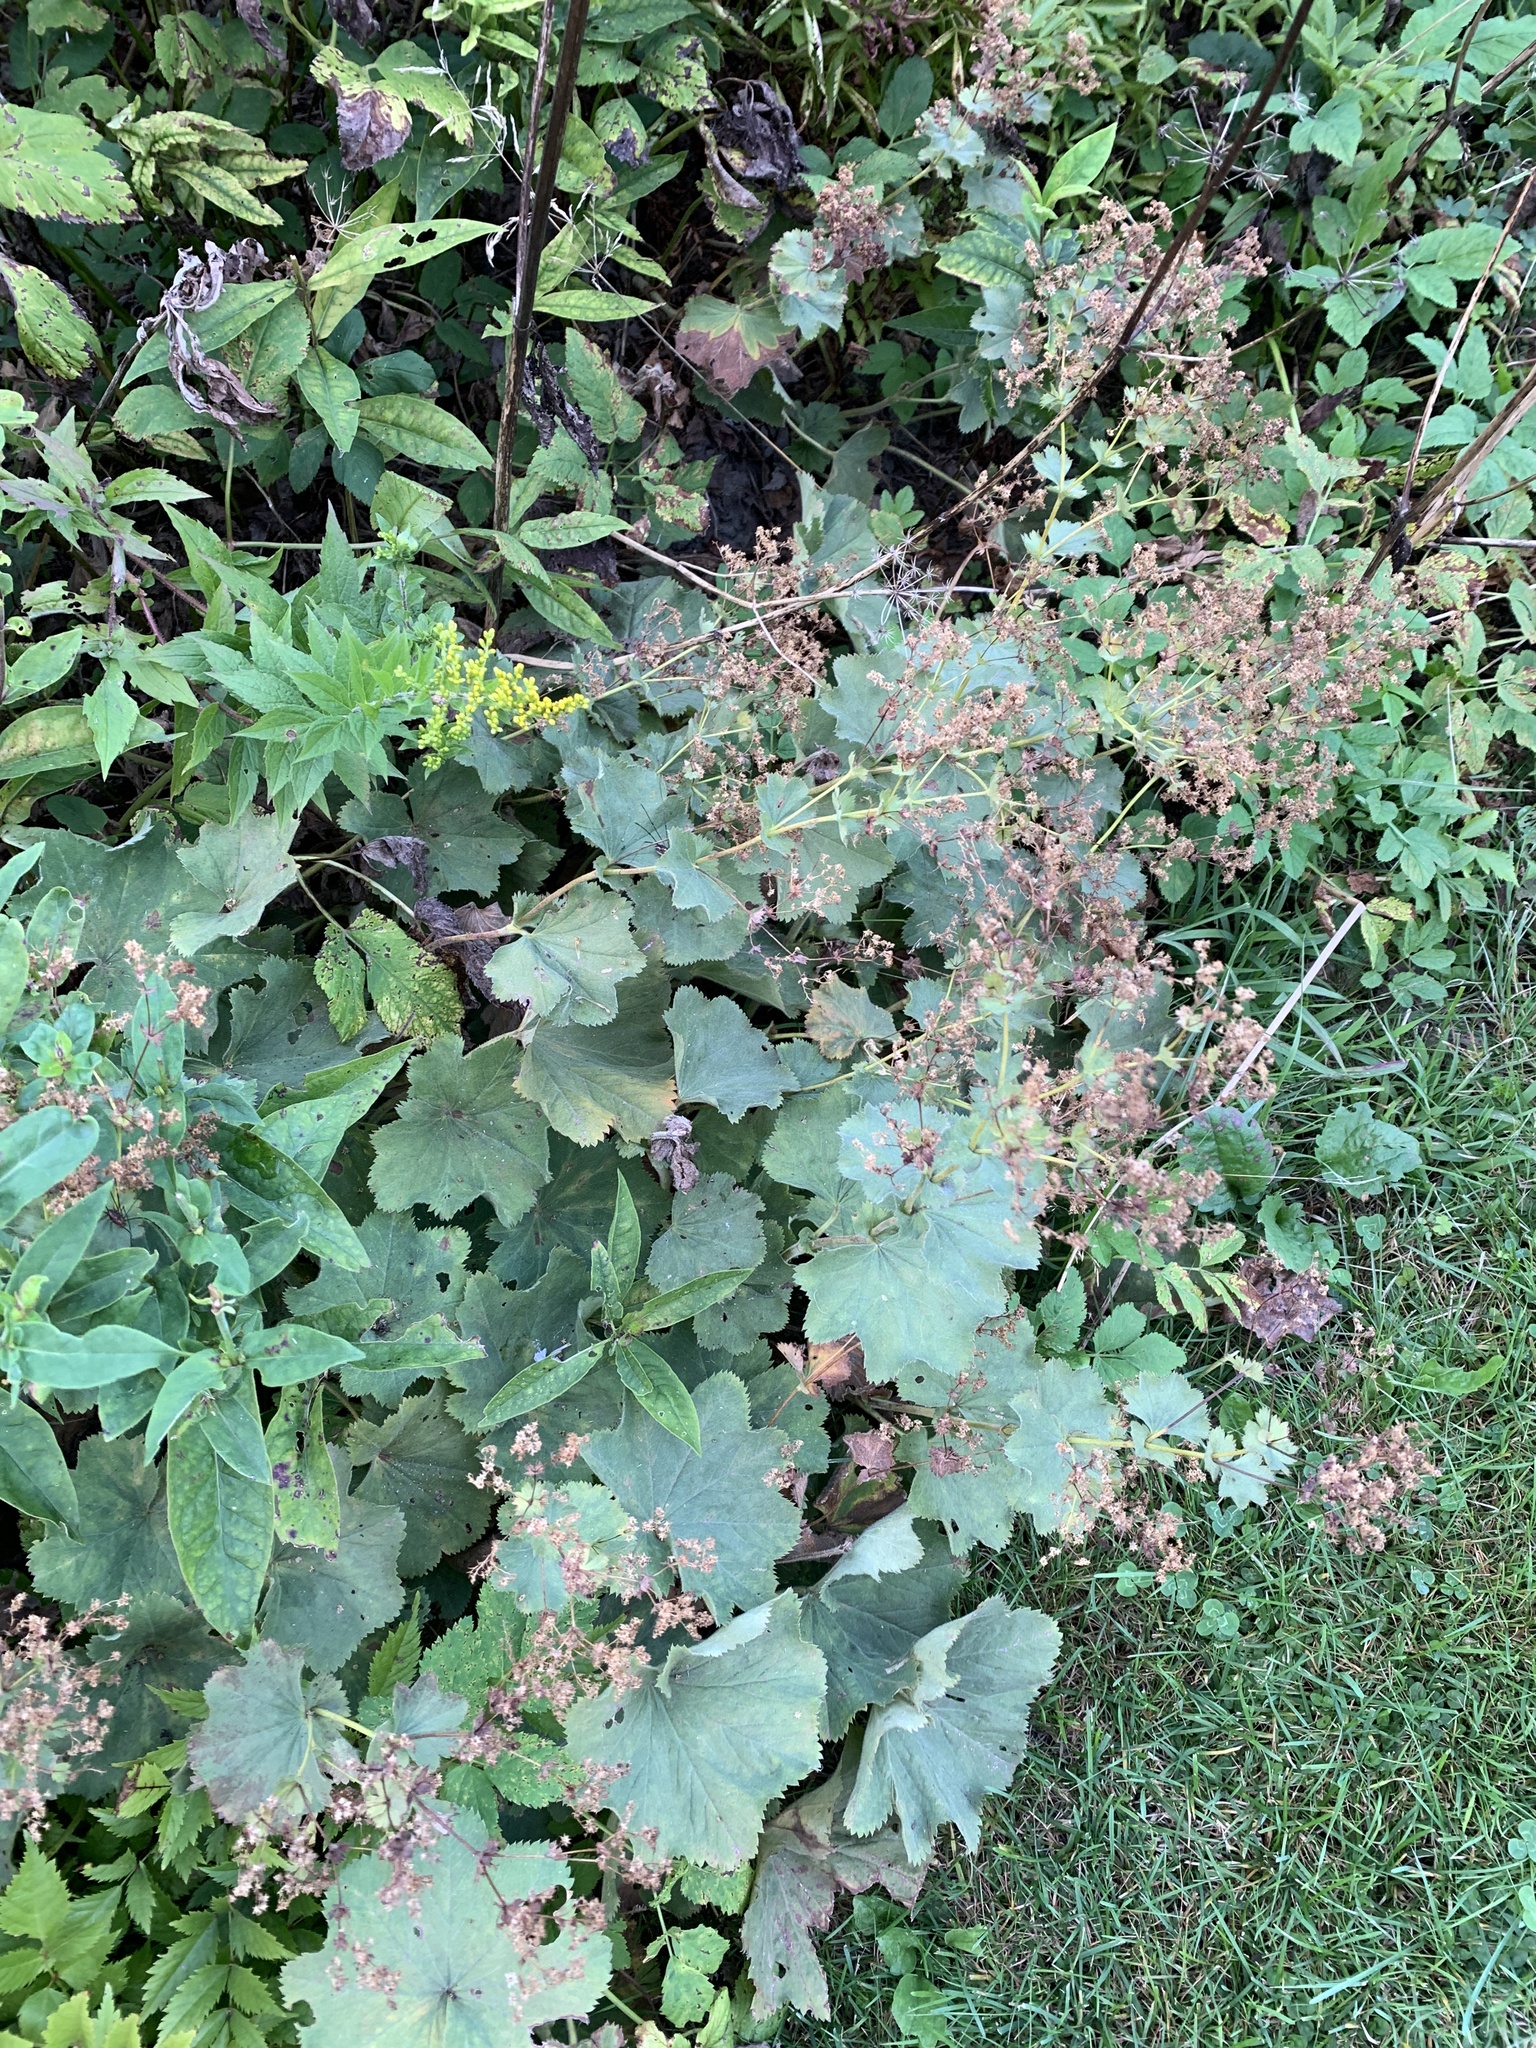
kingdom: Plantae
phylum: Tracheophyta
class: Magnoliopsida
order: Rosales
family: Rosaceae
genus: Alchemilla
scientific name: Alchemilla mollis
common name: Lady's-mantle
